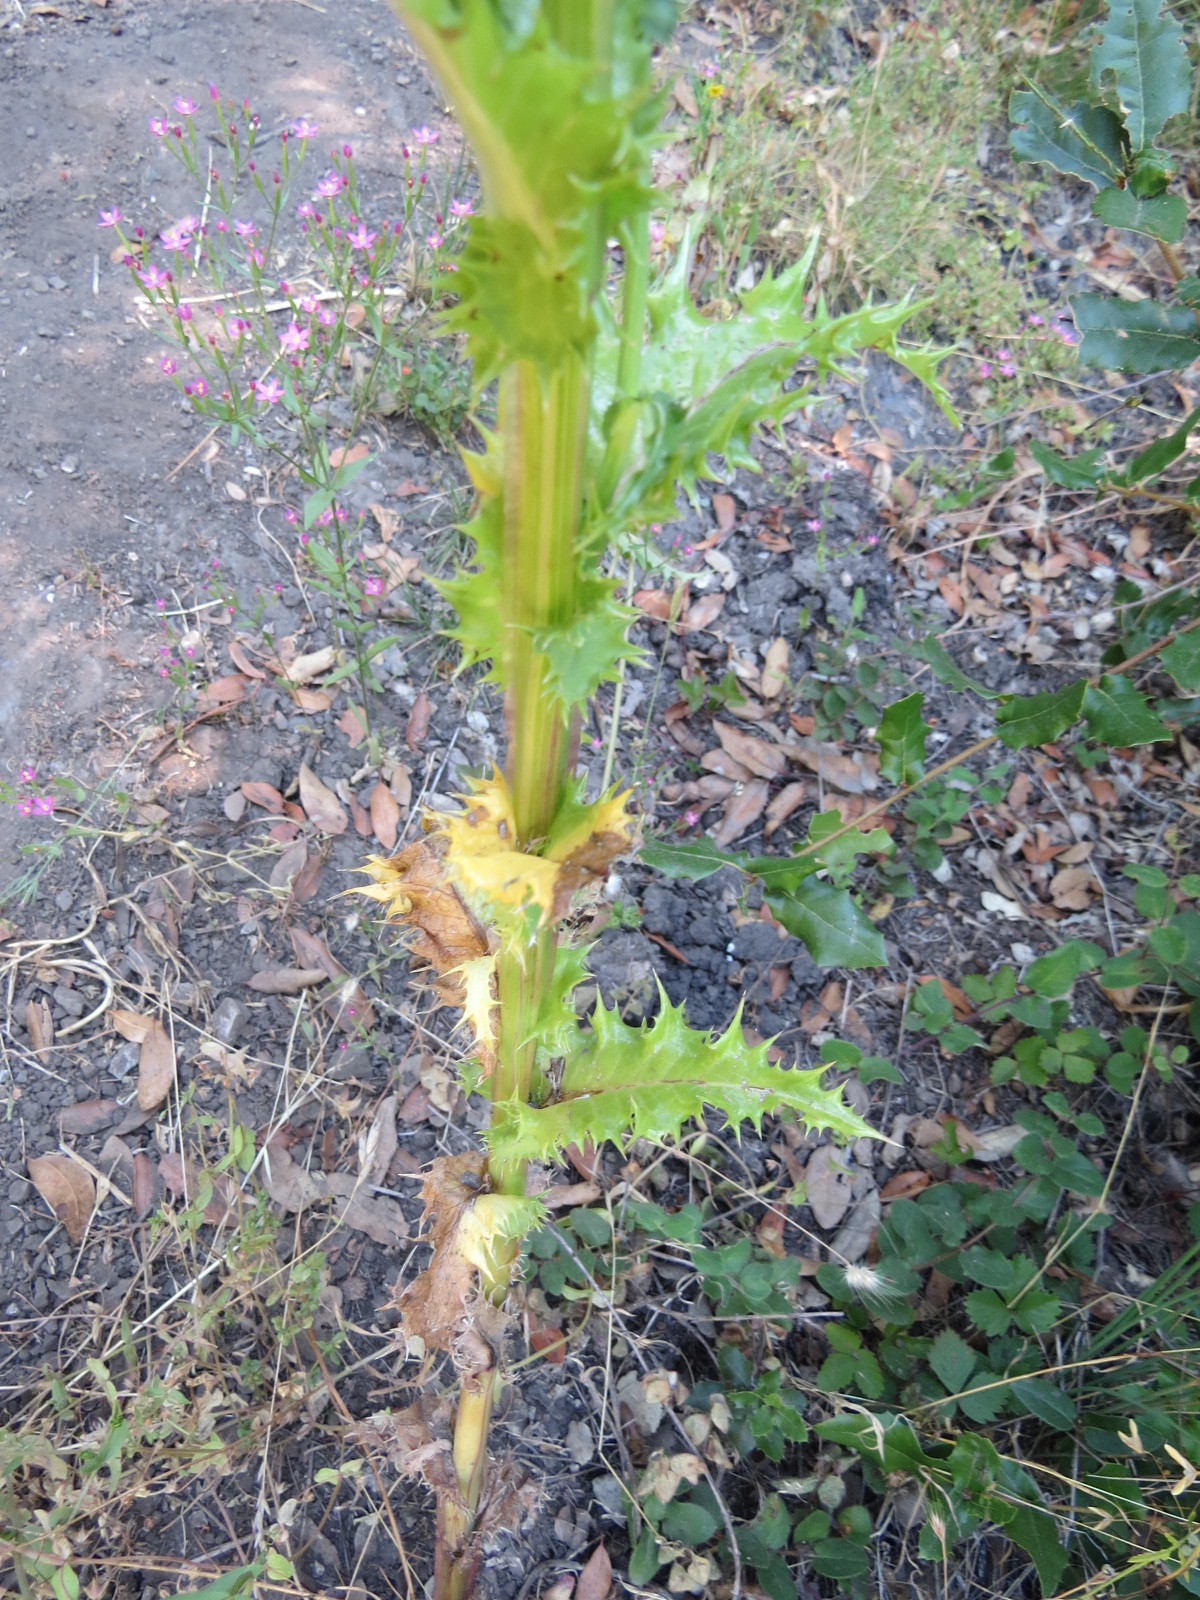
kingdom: Plantae
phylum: Tracheophyta
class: Magnoliopsida
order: Asterales
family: Asteraceae
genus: Sonchus
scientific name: Sonchus asper
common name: Prickly sow-thistle
